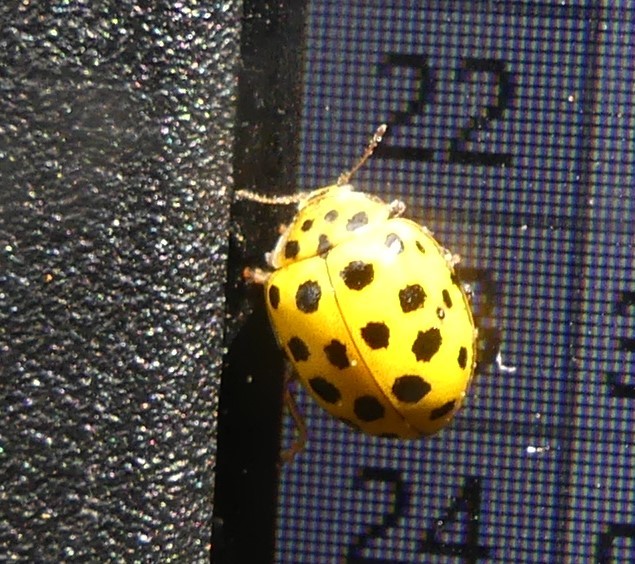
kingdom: Animalia
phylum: Arthropoda
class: Insecta
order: Coleoptera
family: Coccinellidae
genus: Psyllobora
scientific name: Psyllobora vigintiduopunctata
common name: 22-spot ladybird
